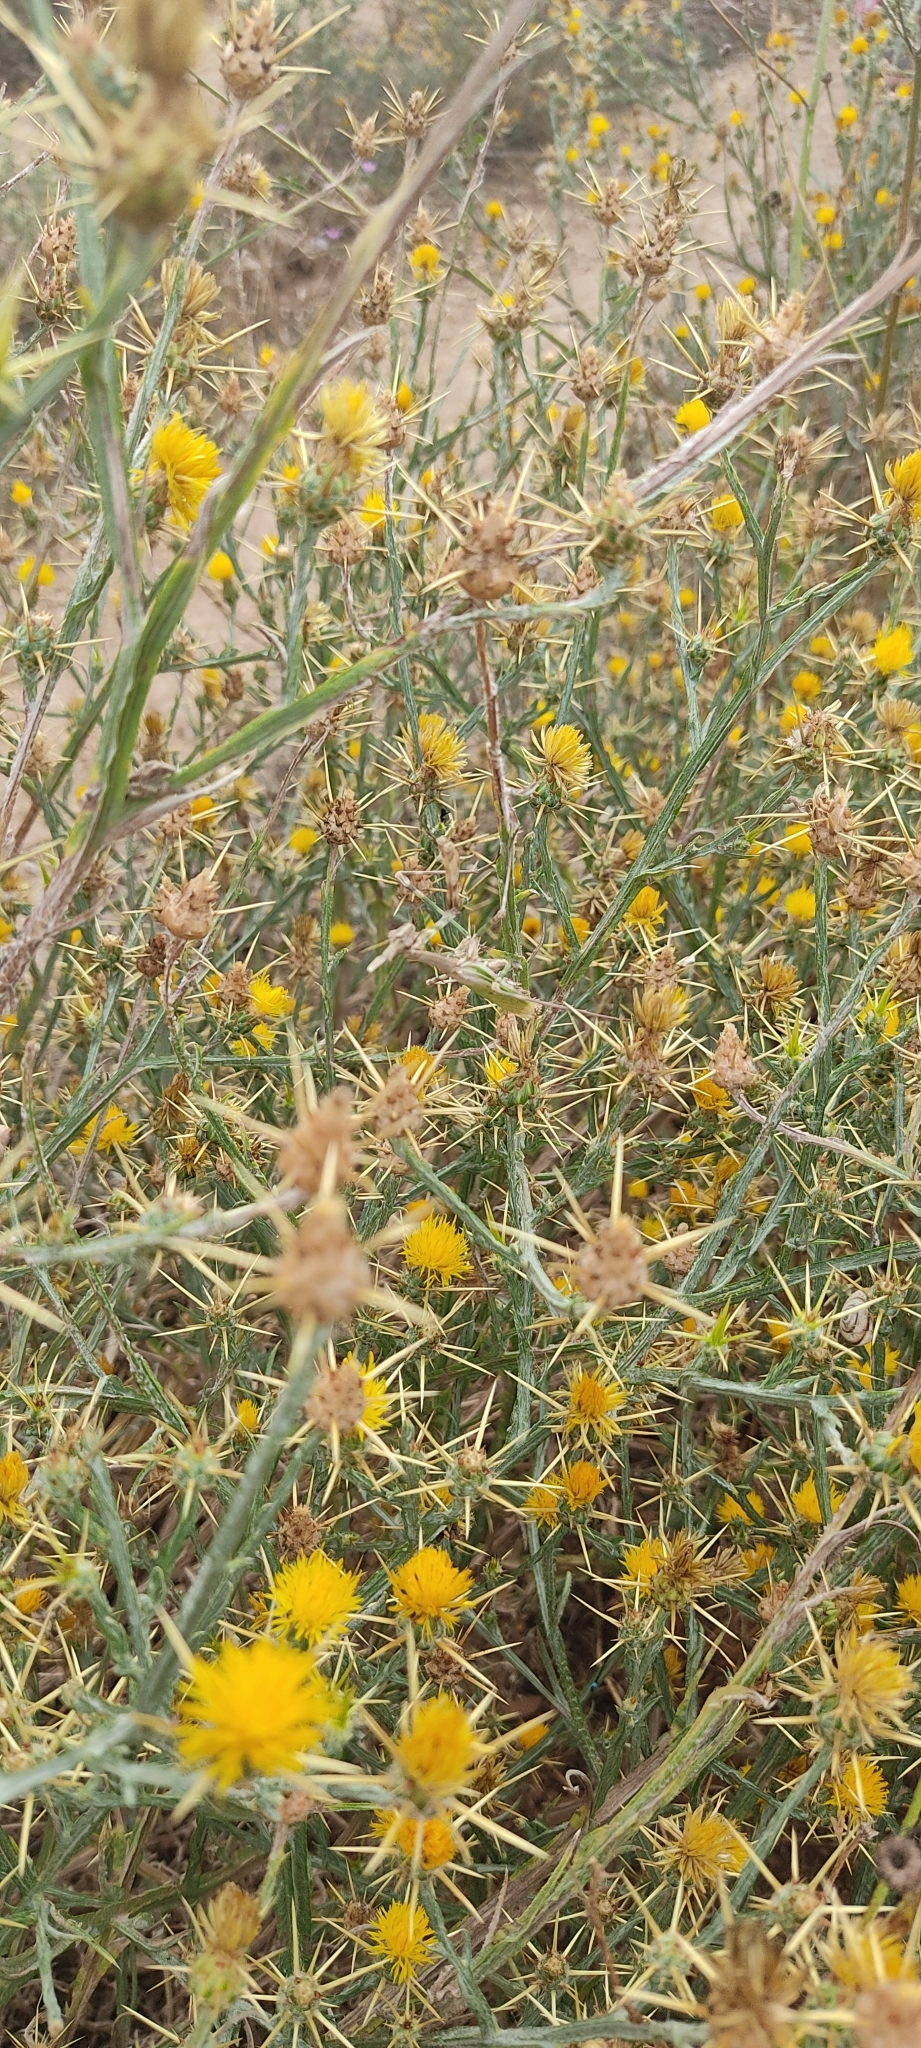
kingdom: Animalia
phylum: Arthropoda
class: Insecta
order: Mantodea
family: Empusidae
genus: Empusa
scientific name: Empusa pennata
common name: Conehead mantis
